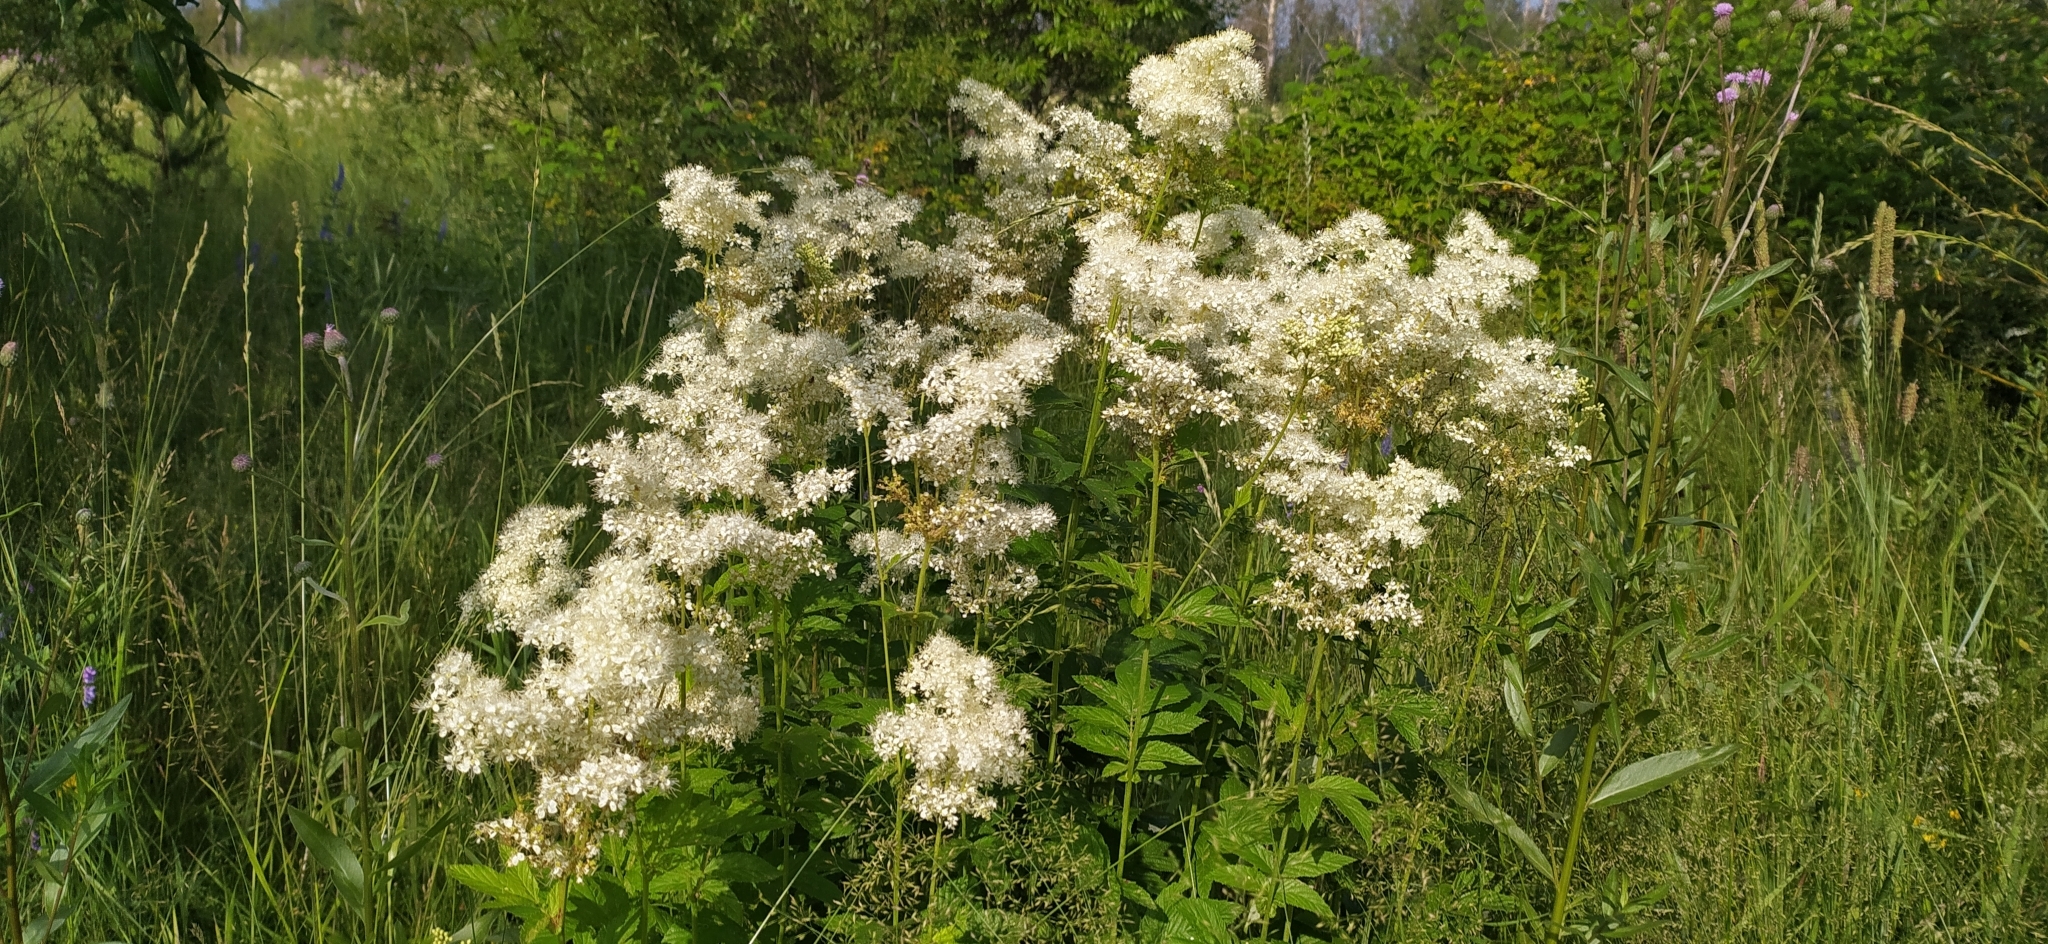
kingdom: Plantae
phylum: Tracheophyta
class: Magnoliopsida
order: Rosales
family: Rosaceae
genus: Filipendula
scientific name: Filipendula ulmaria
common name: Meadowsweet
